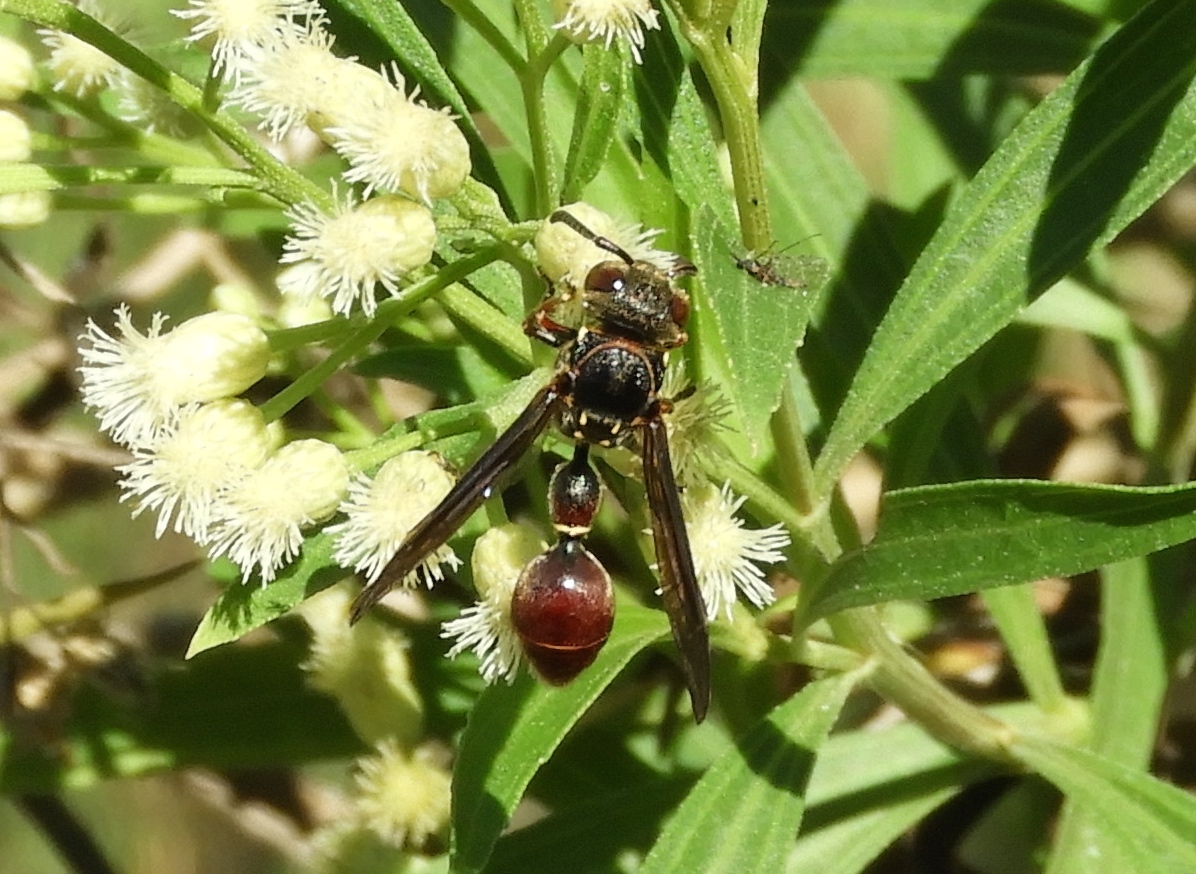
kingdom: Animalia
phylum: Arthropoda
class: Insecta
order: Hymenoptera
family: Eumenidae
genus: Zethus
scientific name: Zethus analis
